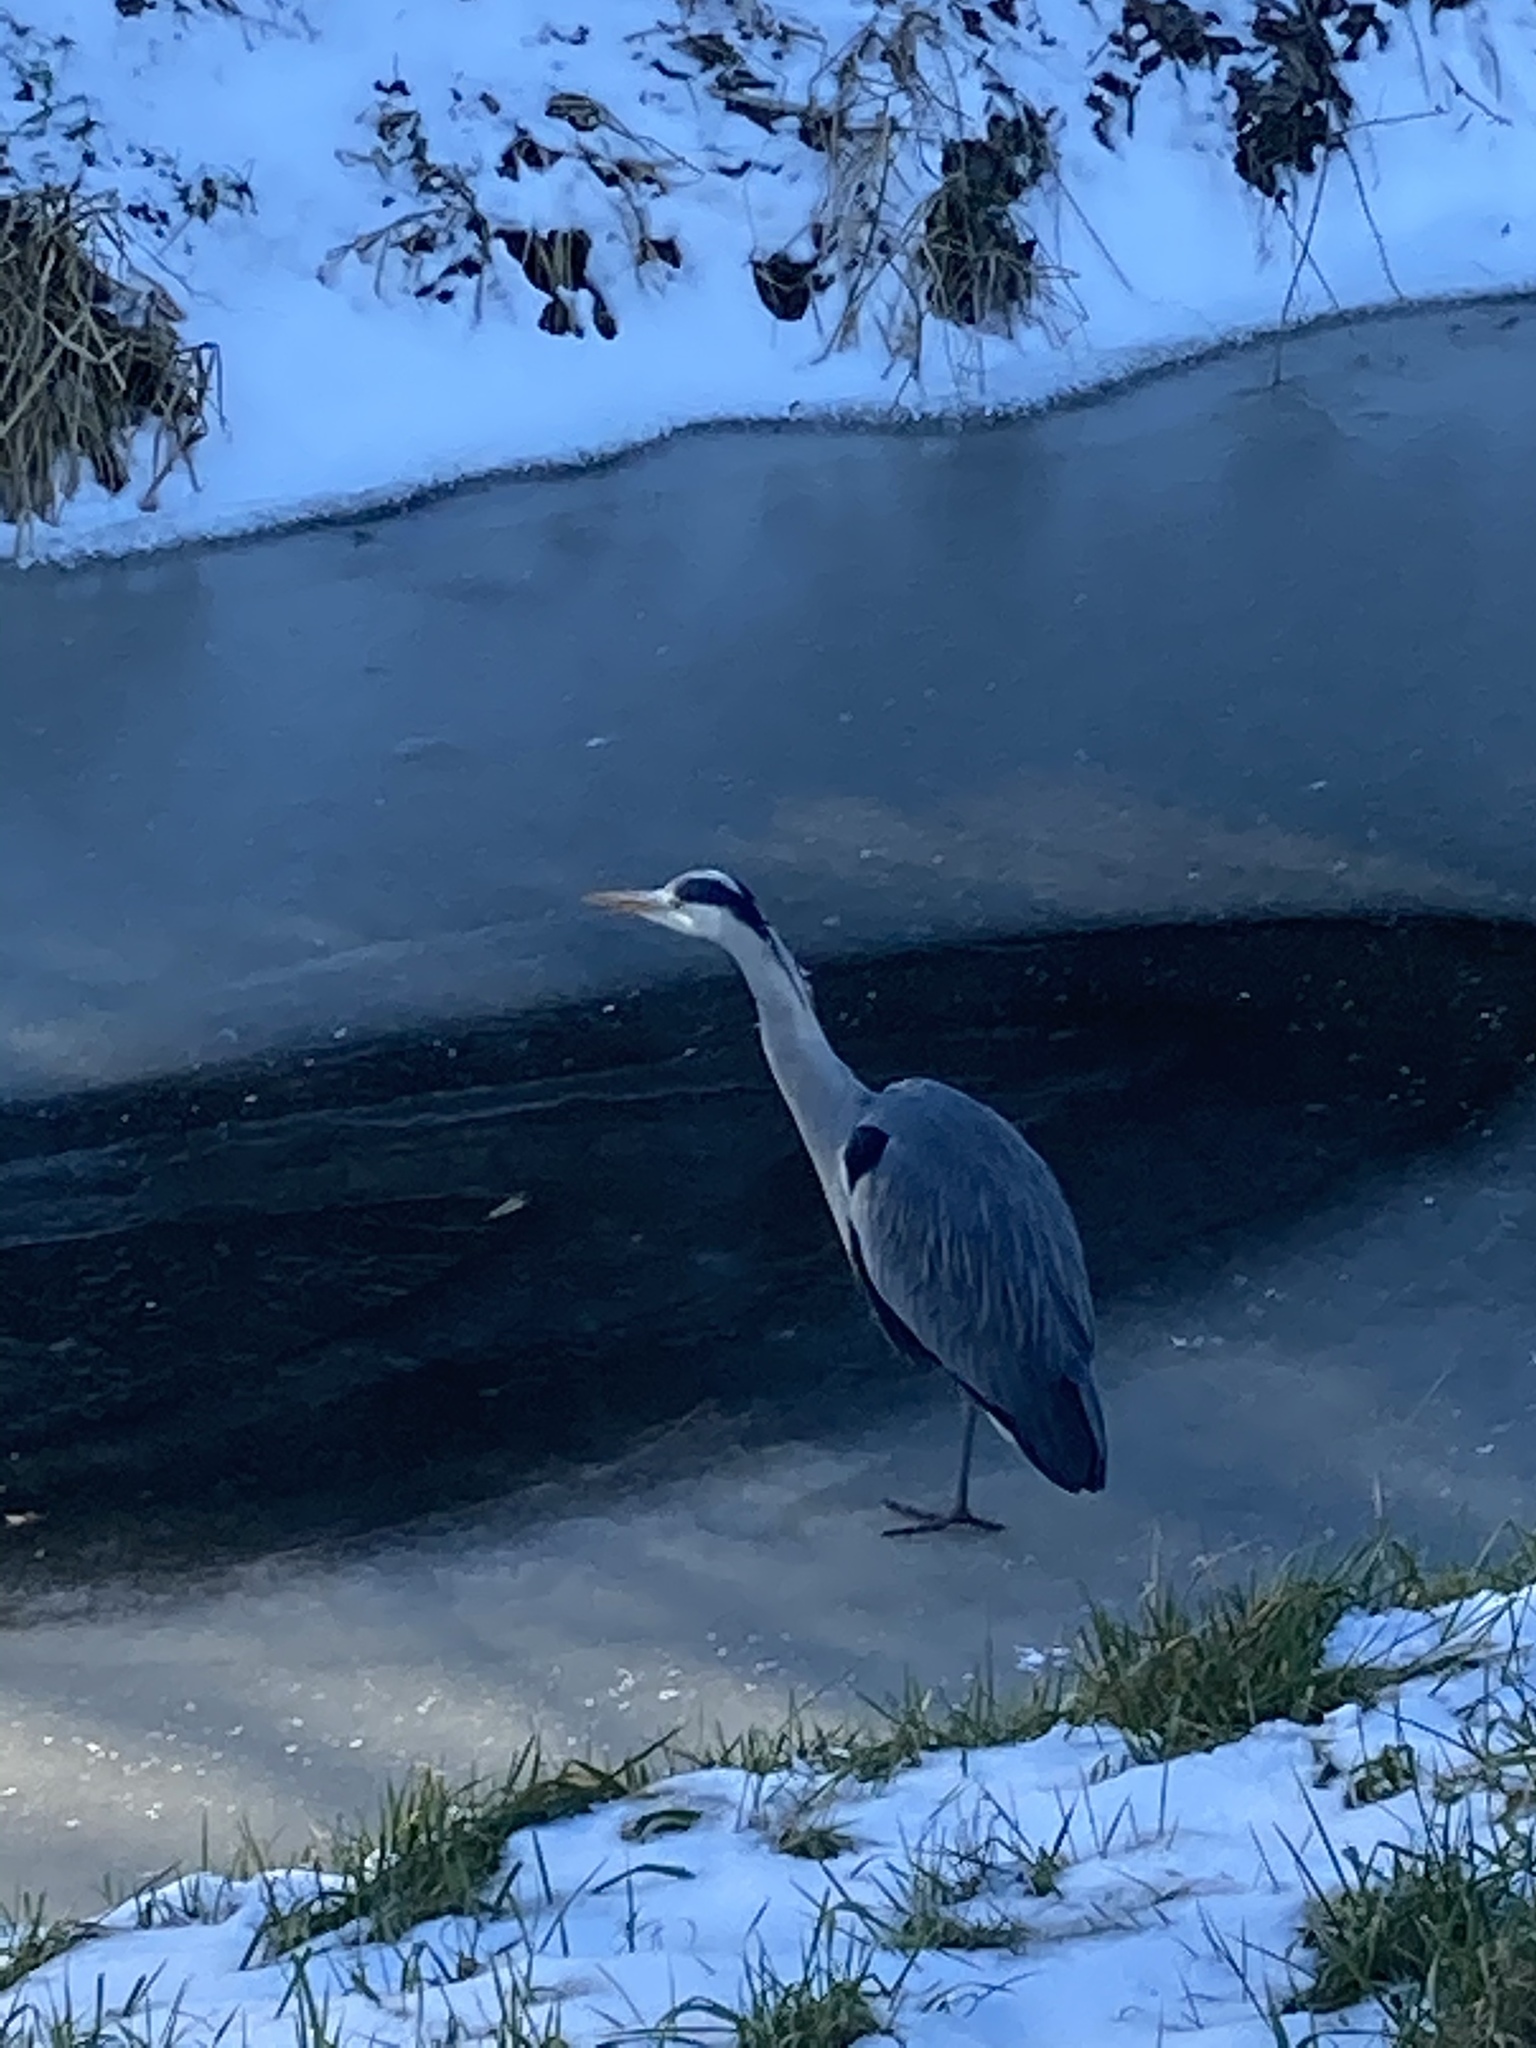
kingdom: Animalia
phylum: Chordata
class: Aves
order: Pelecaniformes
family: Ardeidae
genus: Ardea
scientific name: Ardea cinerea
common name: Grey heron
